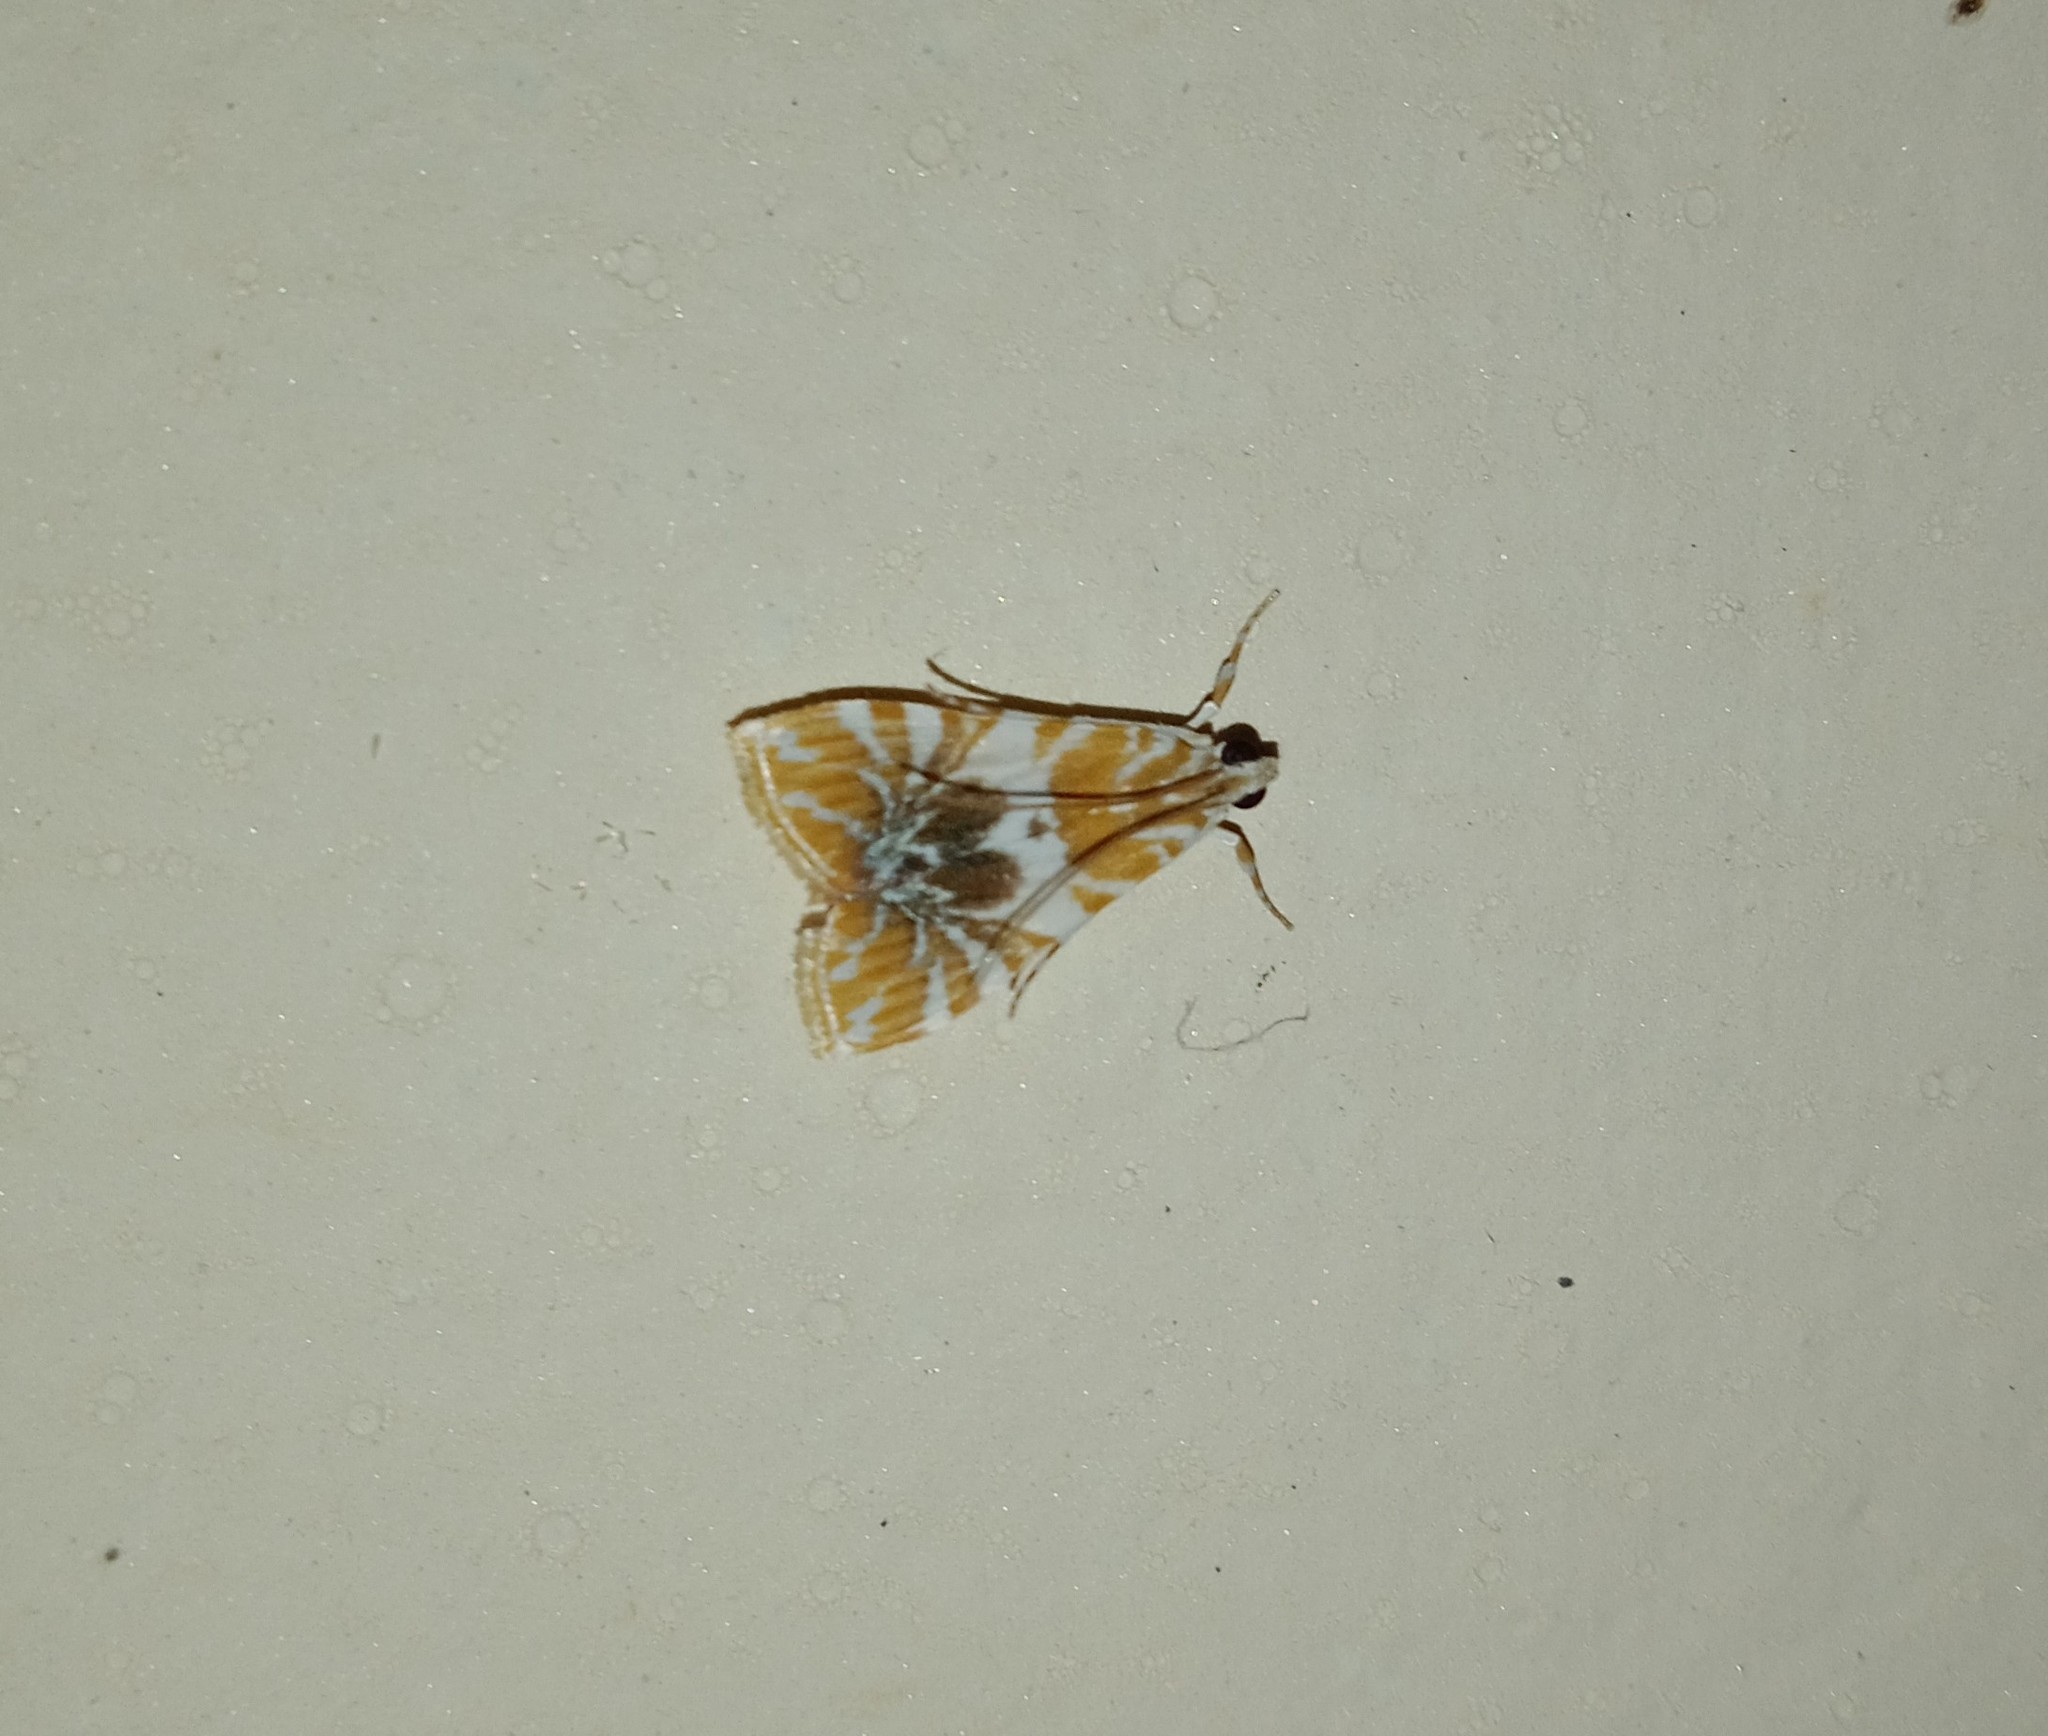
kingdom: Animalia
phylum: Arthropoda
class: Insecta
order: Lepidoptera
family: Crambidae
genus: Macaretaera
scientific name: Macaretaera hesperis
